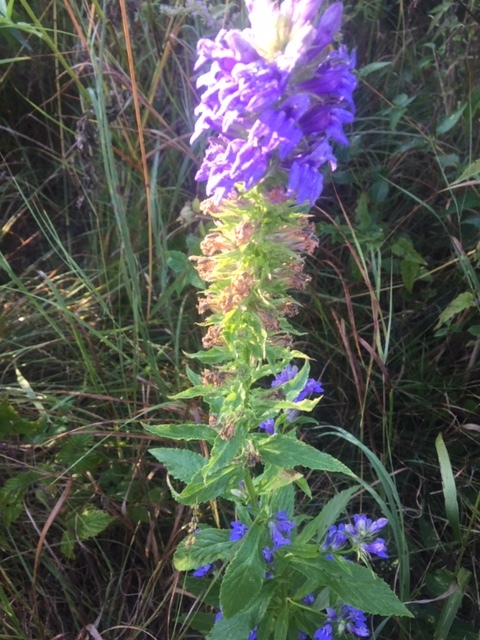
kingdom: Plantae
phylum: Tracheophyta
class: Magnoliopsida
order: Asterales
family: Campanulaceae
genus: Lobelia
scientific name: Lobelia siphilitica
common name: Great lobelia
